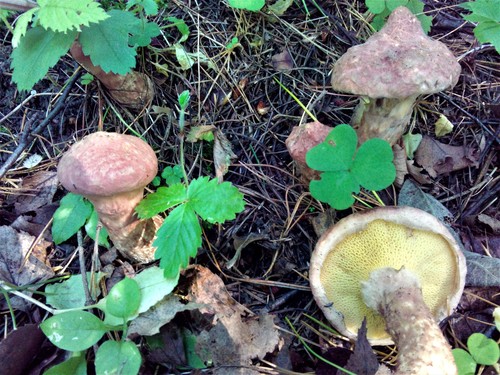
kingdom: Fungi
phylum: Basidiomycota
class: Agaricomycetes
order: Boletales
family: Suillaceae
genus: Suillus
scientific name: Suillus spraguei
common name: Painted suillus
